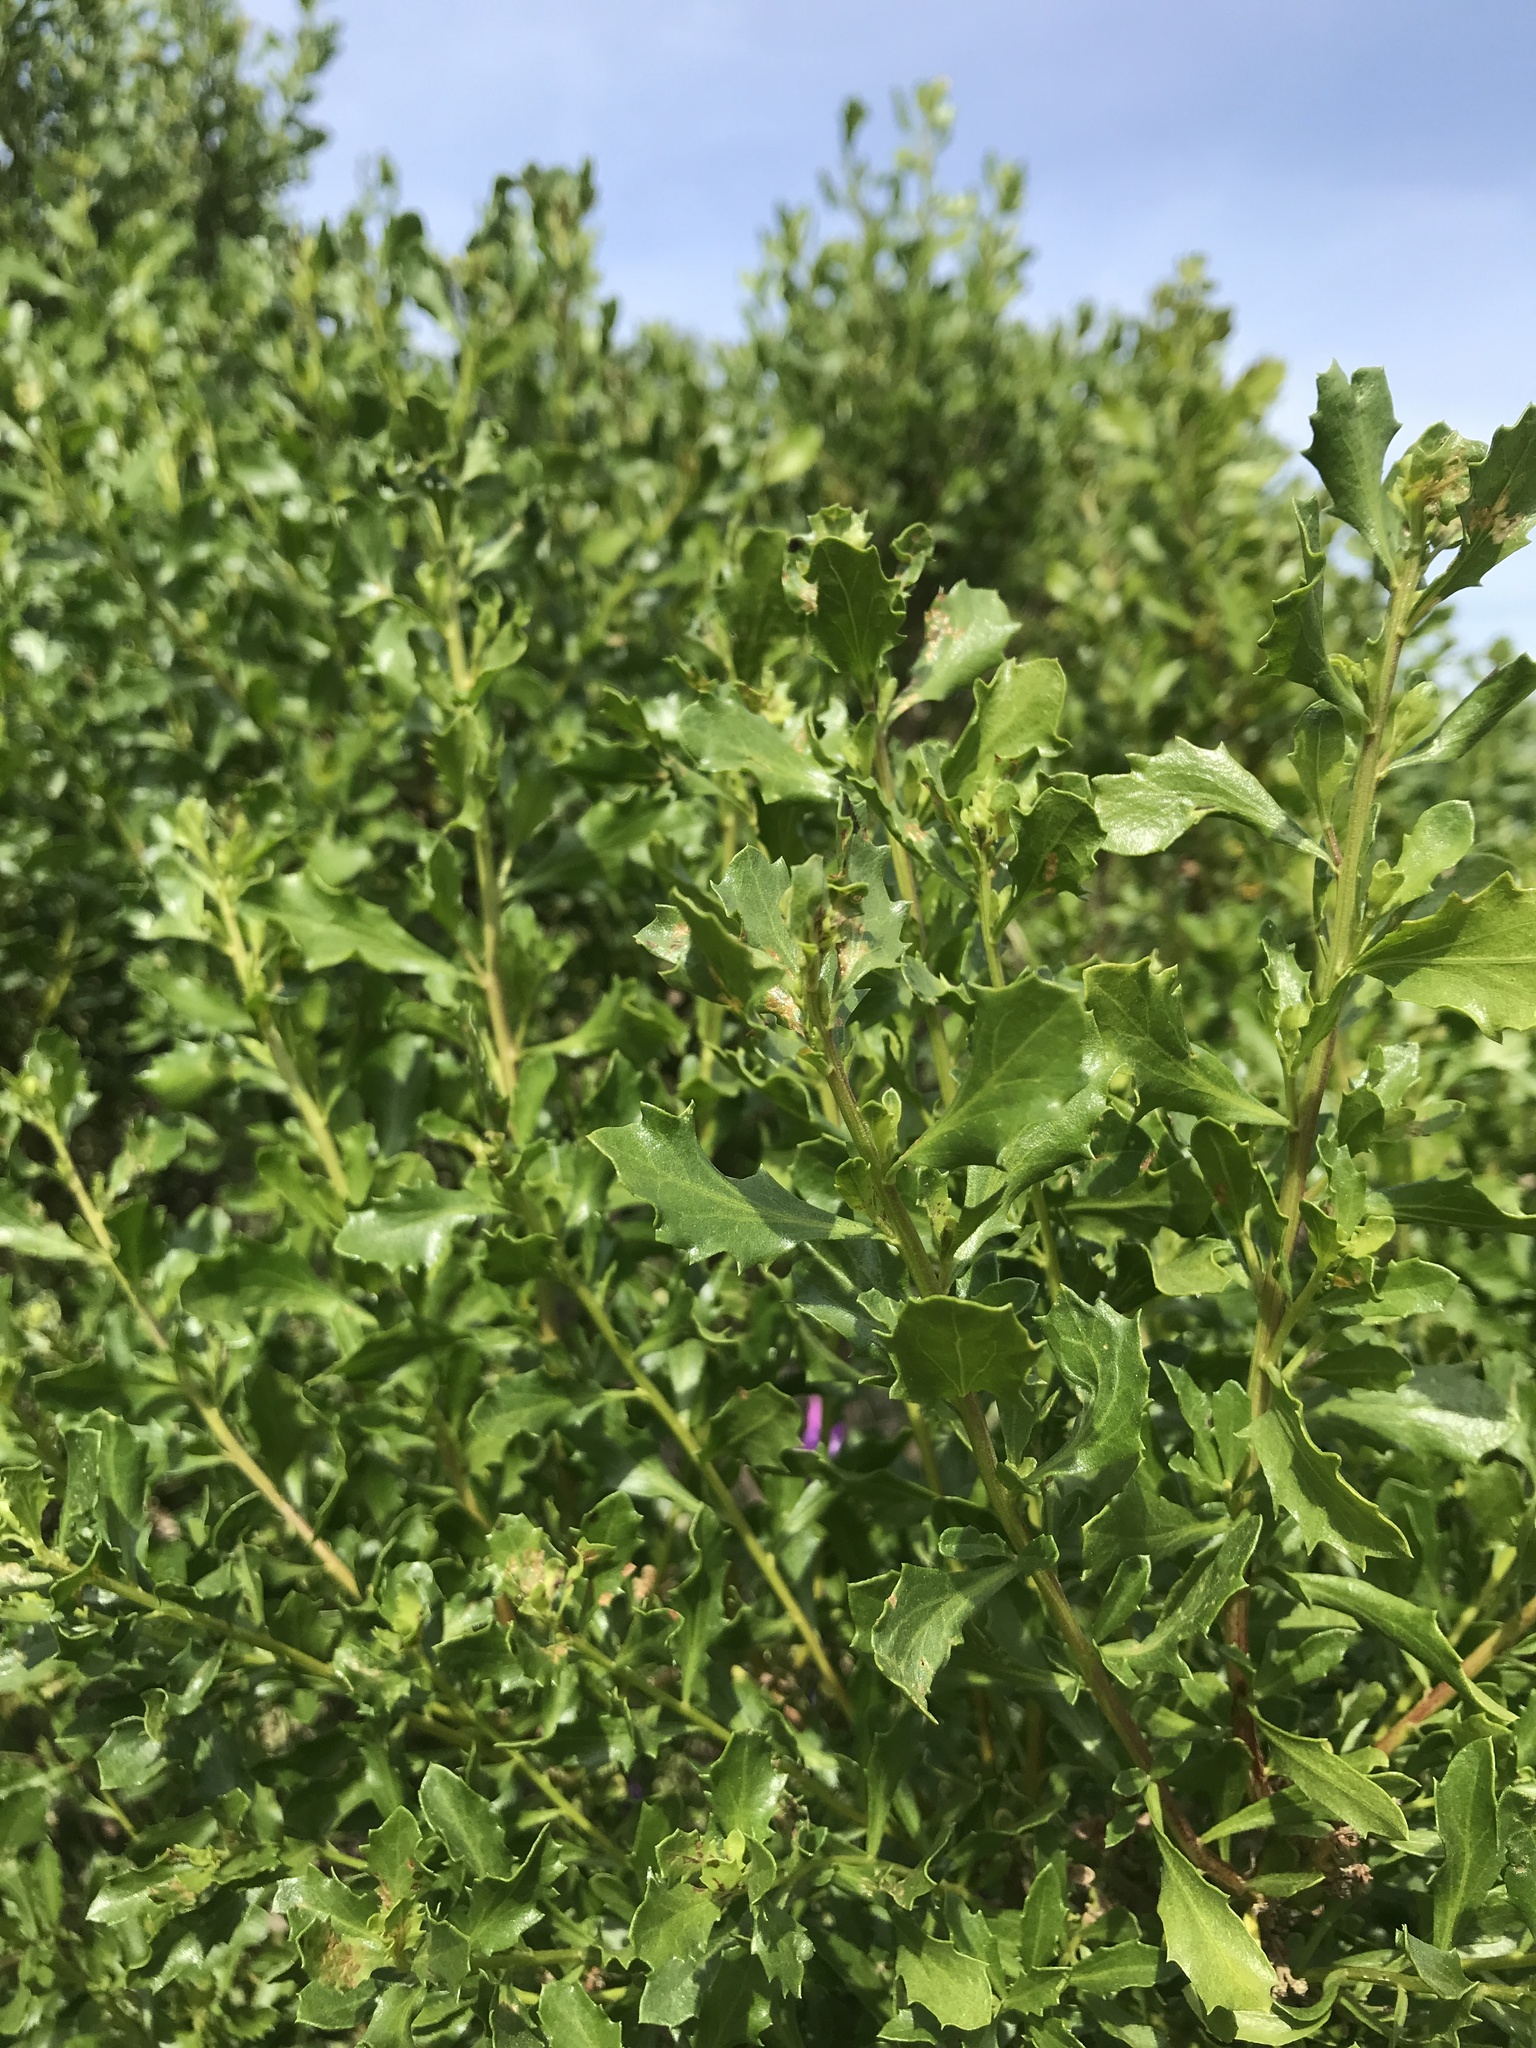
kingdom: Plantae
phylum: Tracheophyta
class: Magnoliopsida
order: Asterales
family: Asteraceae
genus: Baccharis
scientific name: Baccharis pilularis
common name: Coyotebrush
